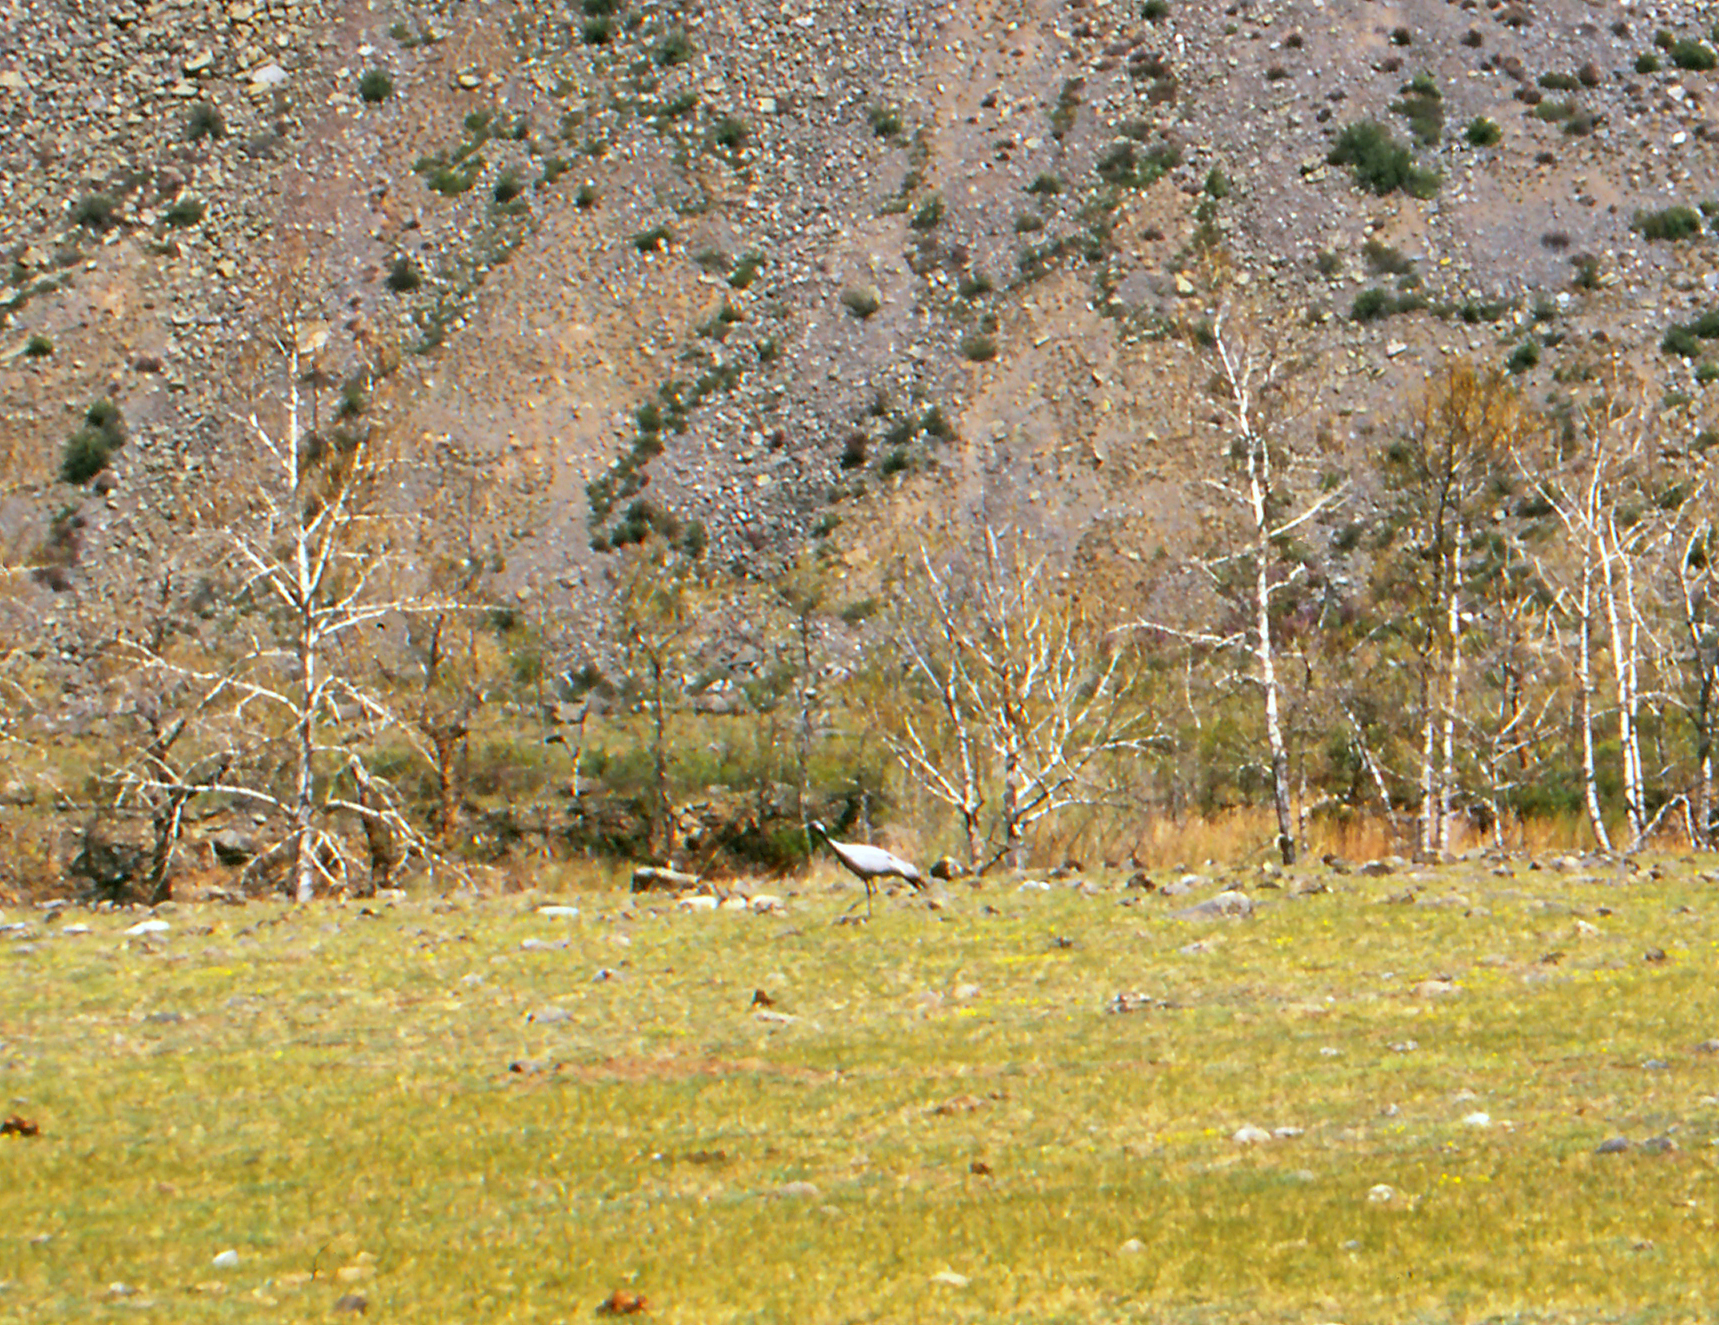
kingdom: Animalia
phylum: Chordata
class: Aves
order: Gruiformes
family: Gruidae
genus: Anthropoides
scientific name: Anthropoides virgo
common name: Demoiselle crane
